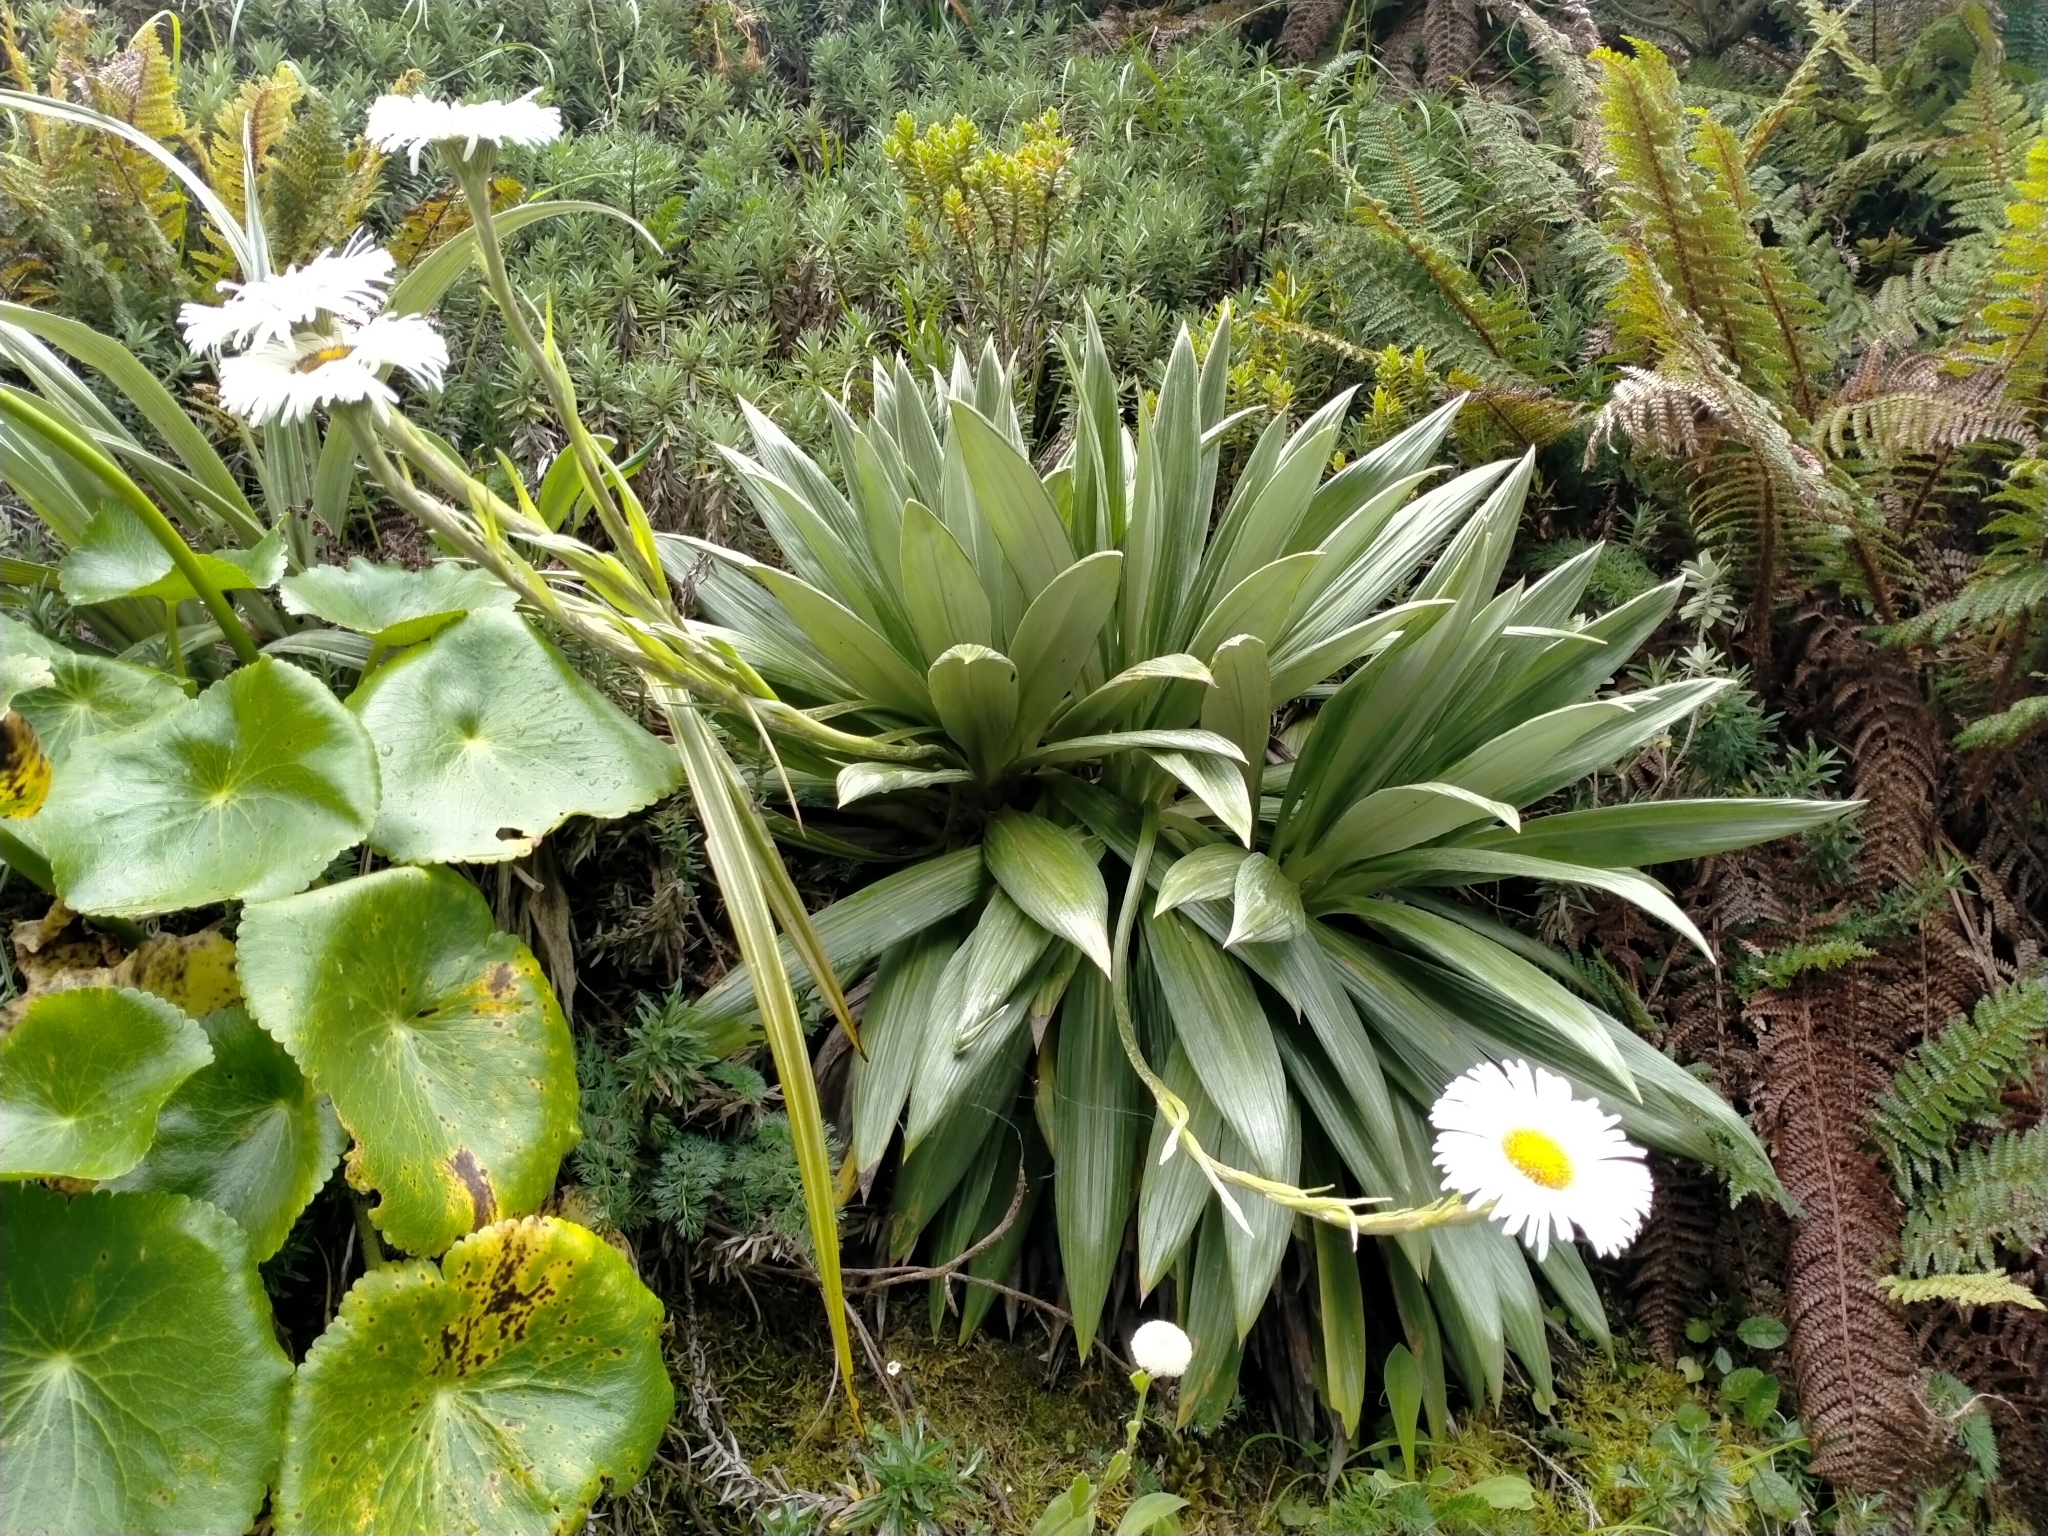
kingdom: Plantae
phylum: Tracheophyta
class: Magnoliopsida
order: Asterales
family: Asteraceae
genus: Celmisia
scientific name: Celmisia semicordata
